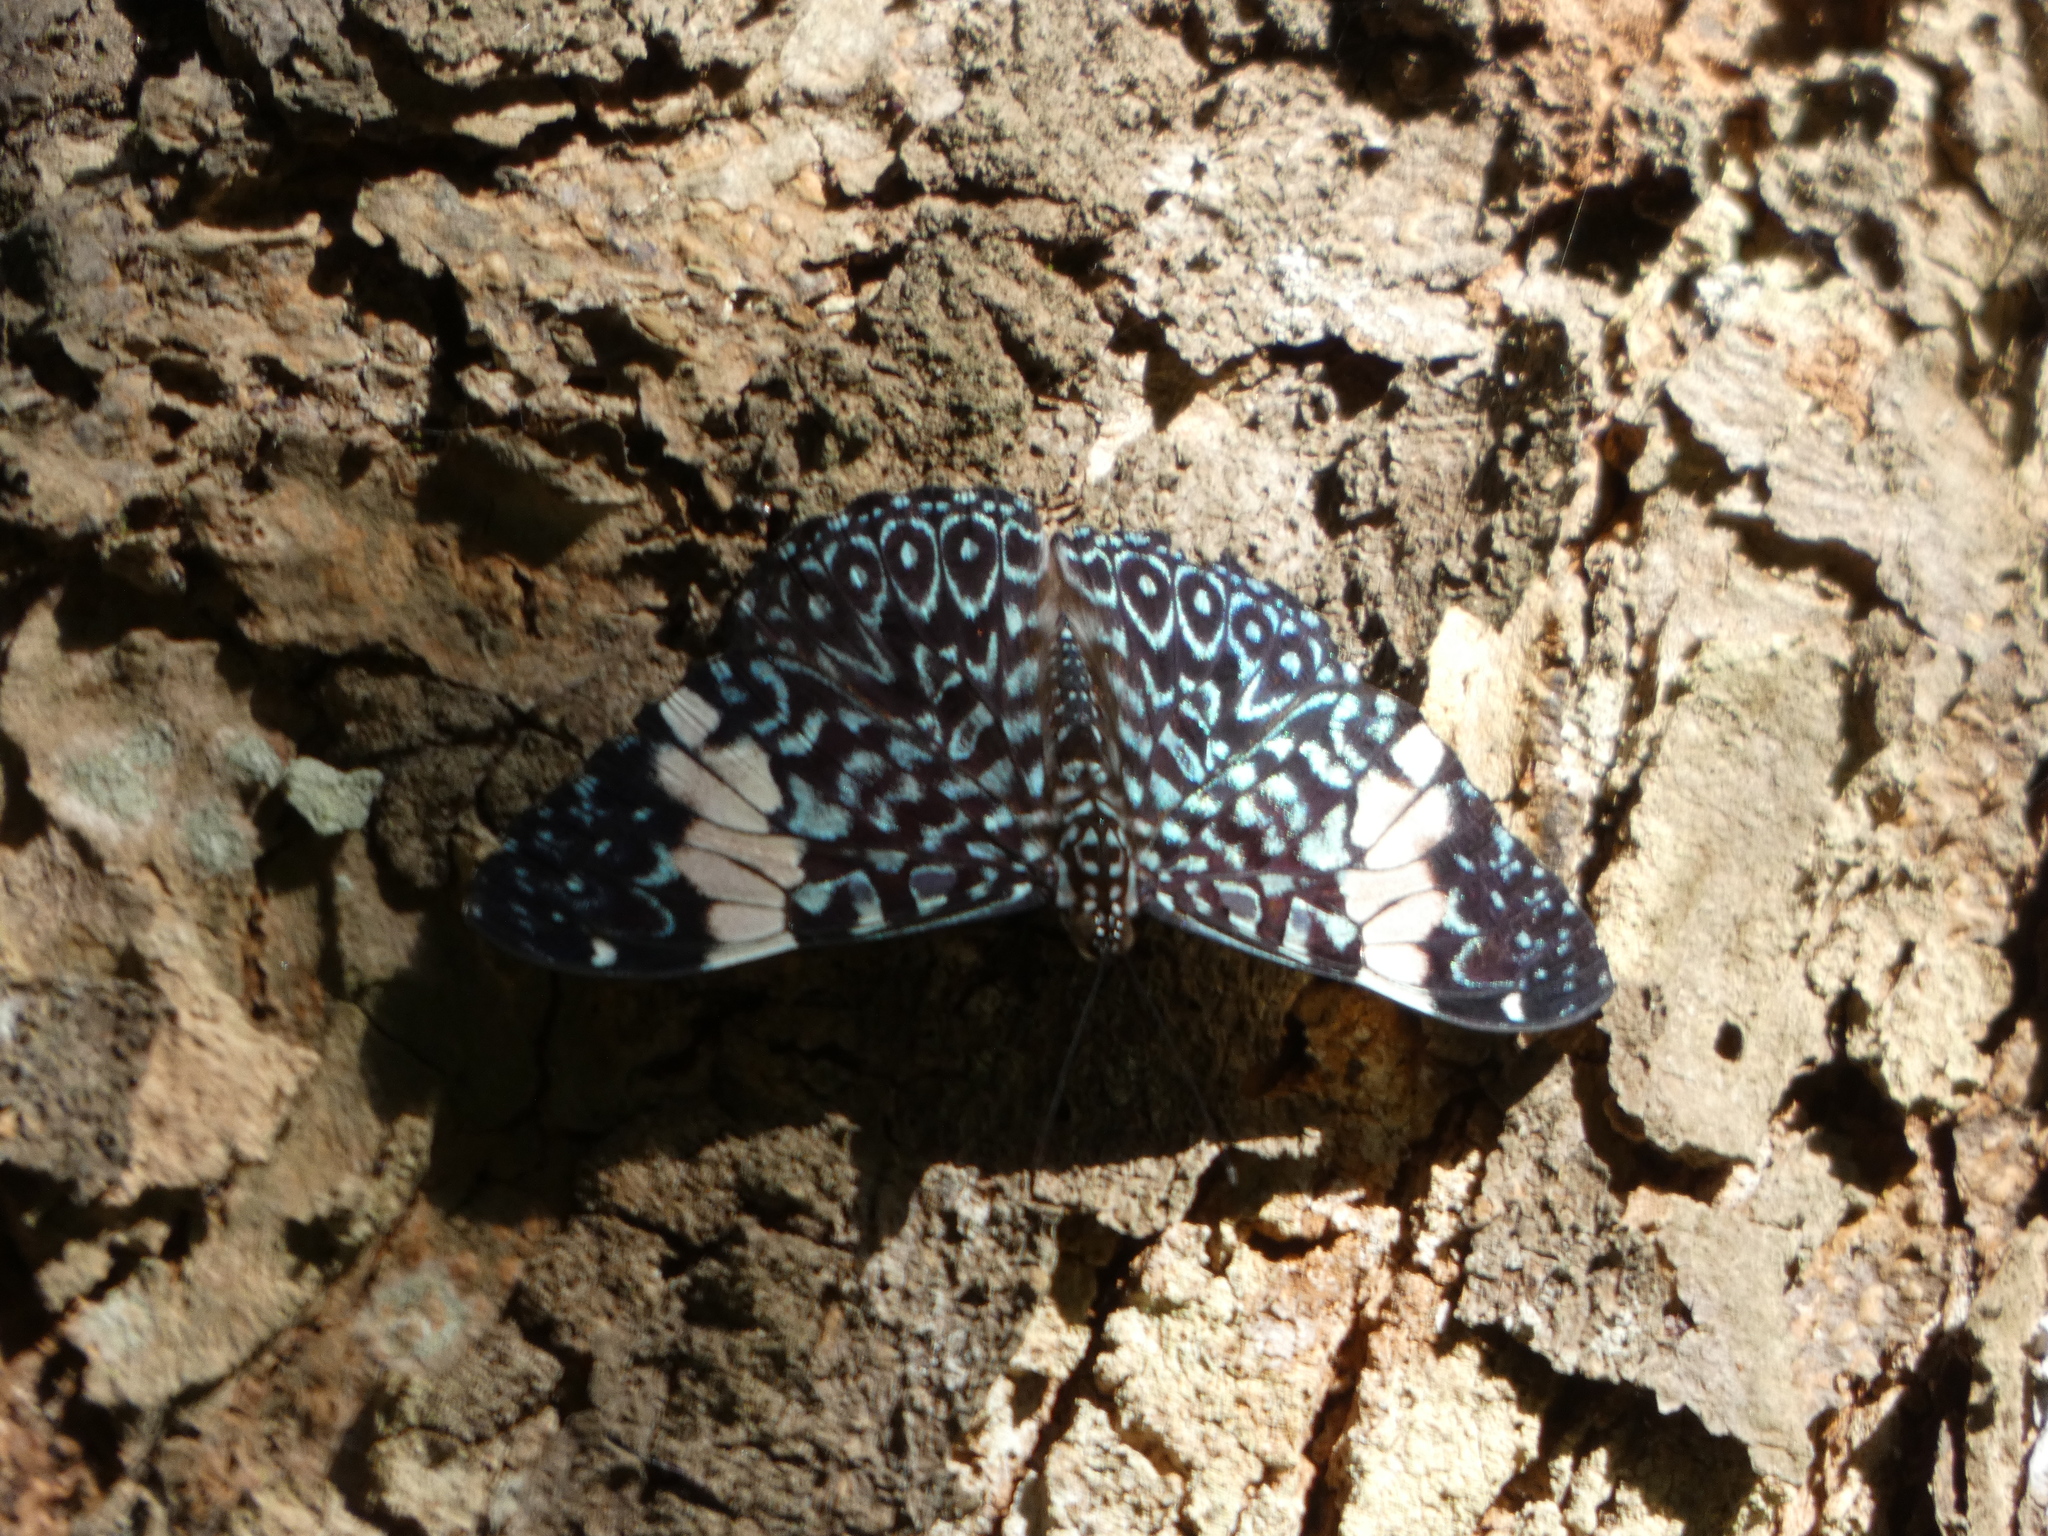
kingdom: Animalia
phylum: Arthropoda
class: Insecta
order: Lepidoptera
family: Nymphalidae
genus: Hamadryas
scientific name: Hamadryas amphinome
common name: Red cracker
